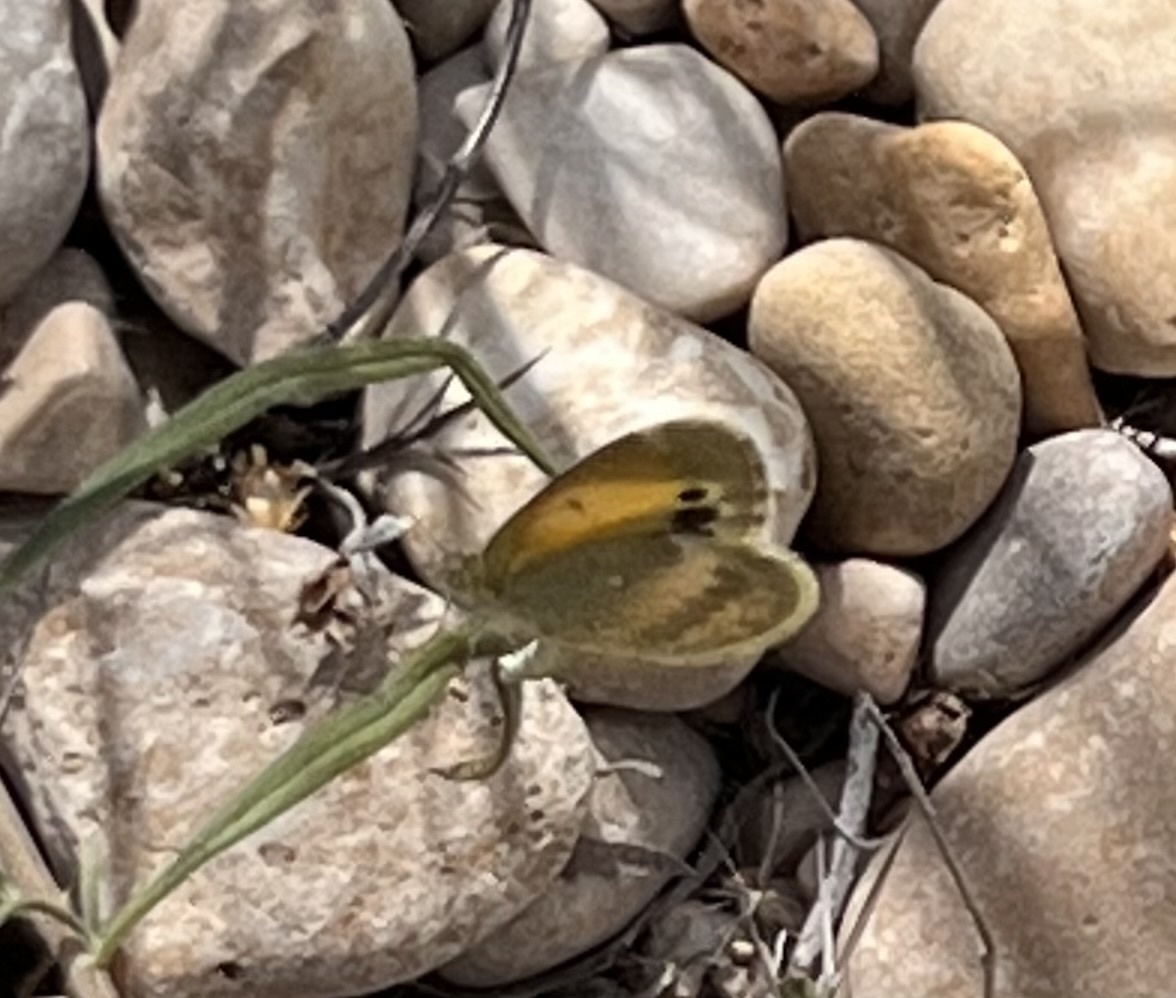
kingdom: Animalia
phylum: Arthropoda
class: Insecta
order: Lepidoptera
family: Pieridae
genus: Nathalis
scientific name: Nathalis iole
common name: Dainty sulphur
